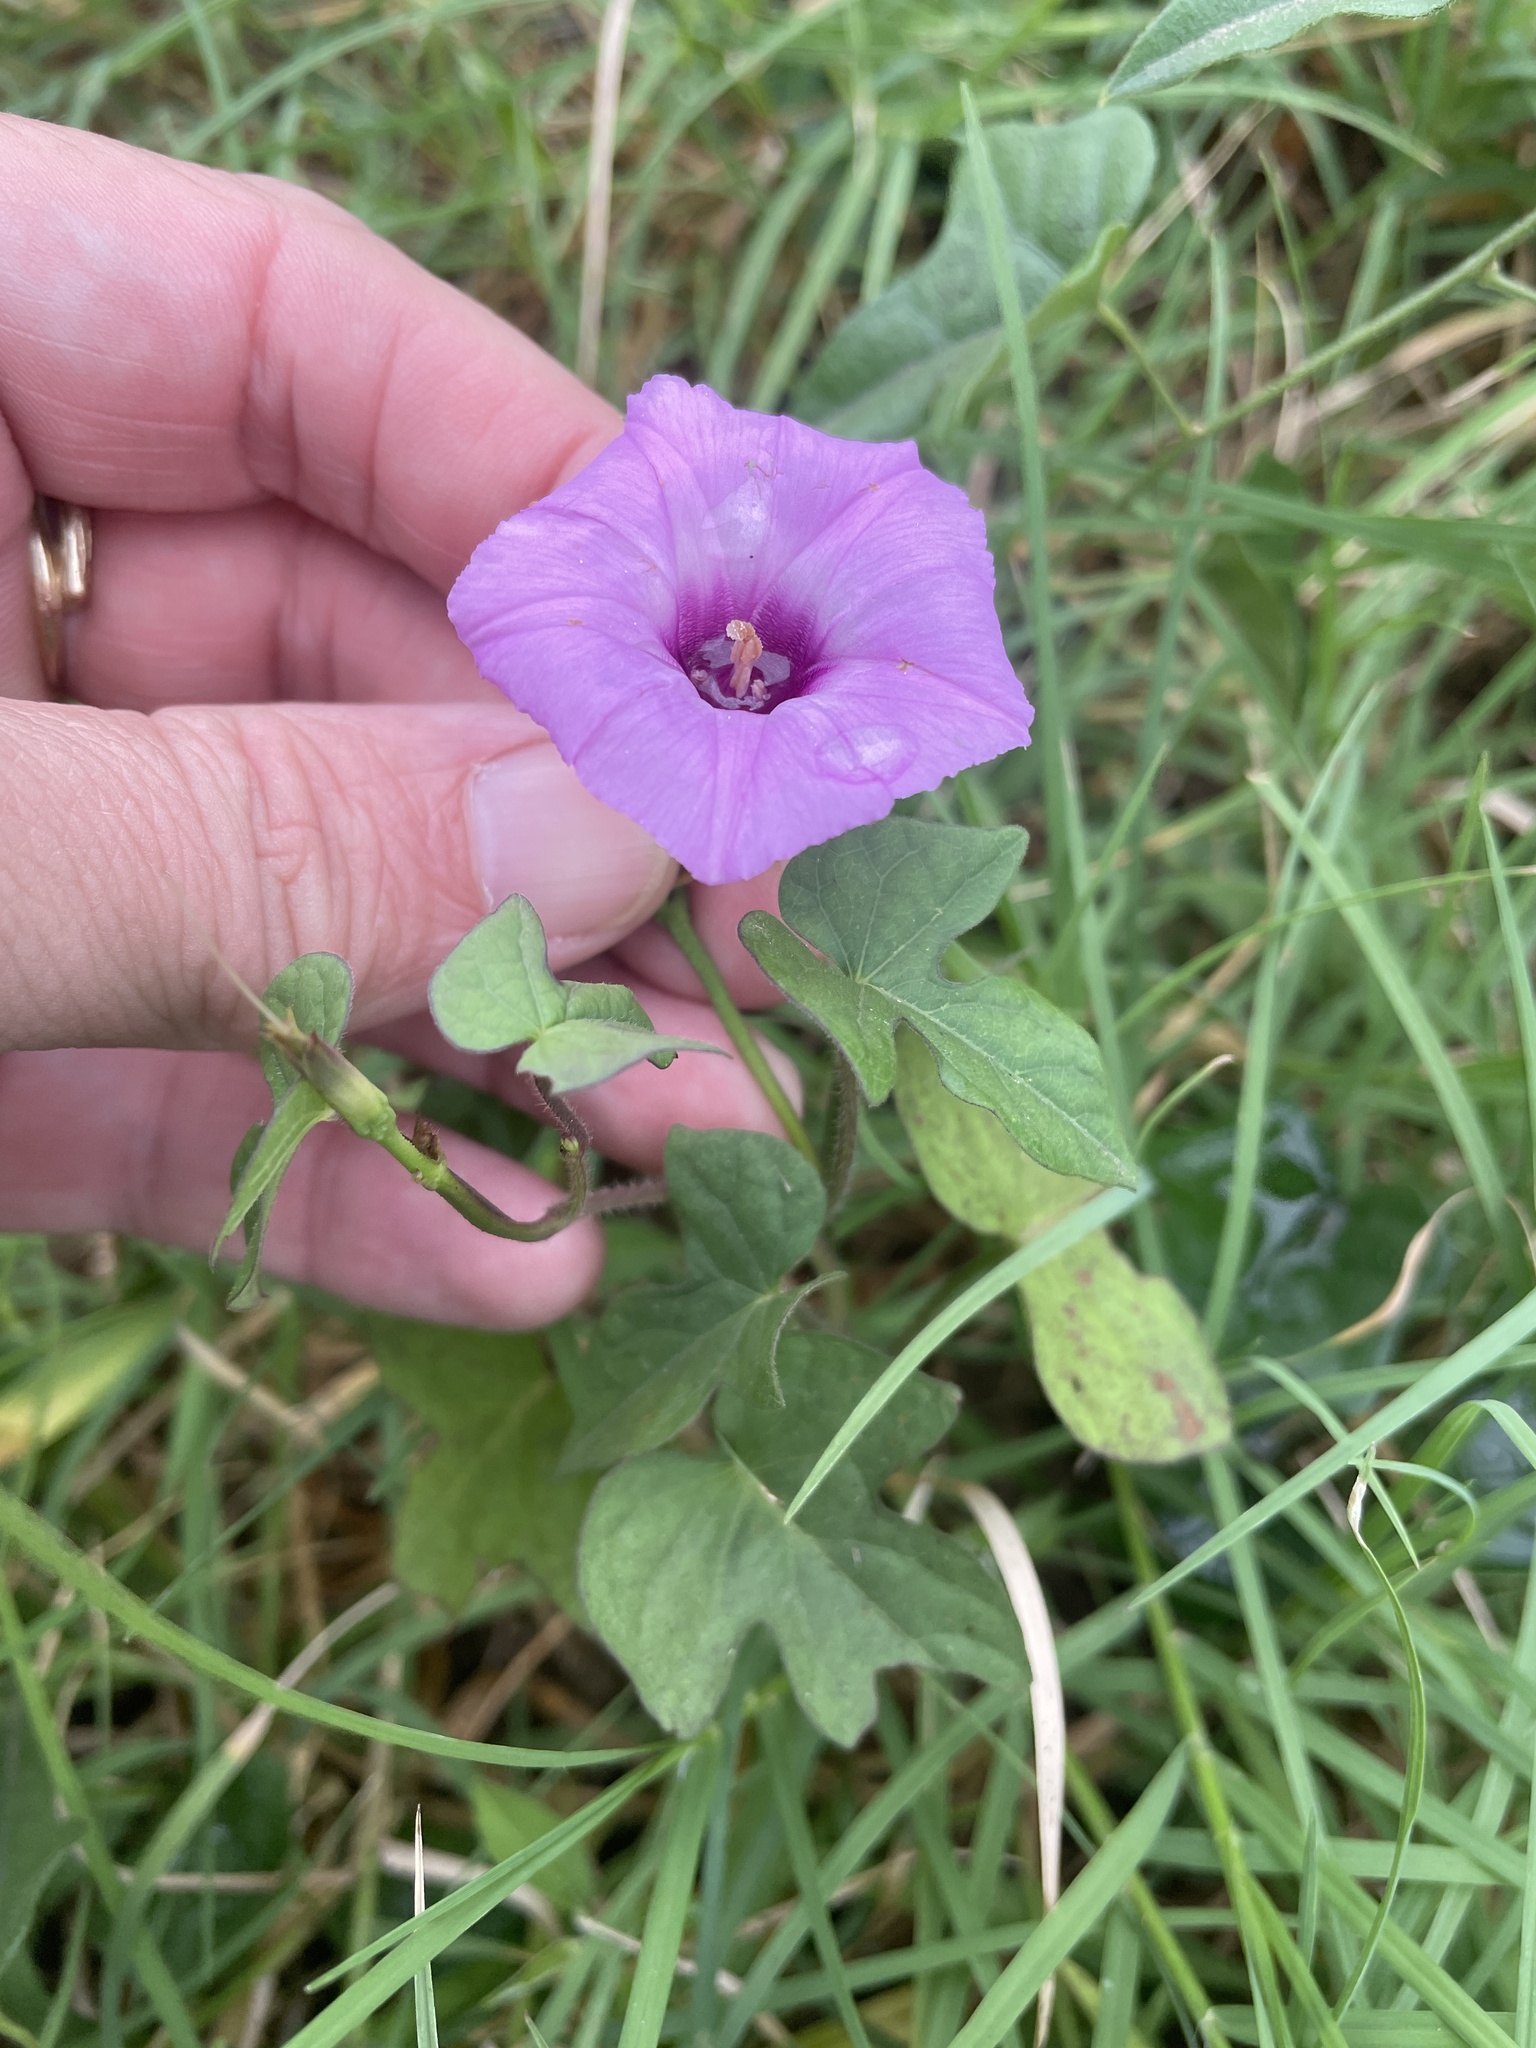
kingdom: Plantae
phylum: Tracheophyta
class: Magnoliopsida
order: Solanales
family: Convolvulaceae
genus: Ipomoea
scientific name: Ipomoea cordatotriloba
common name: Cotton morning glory
